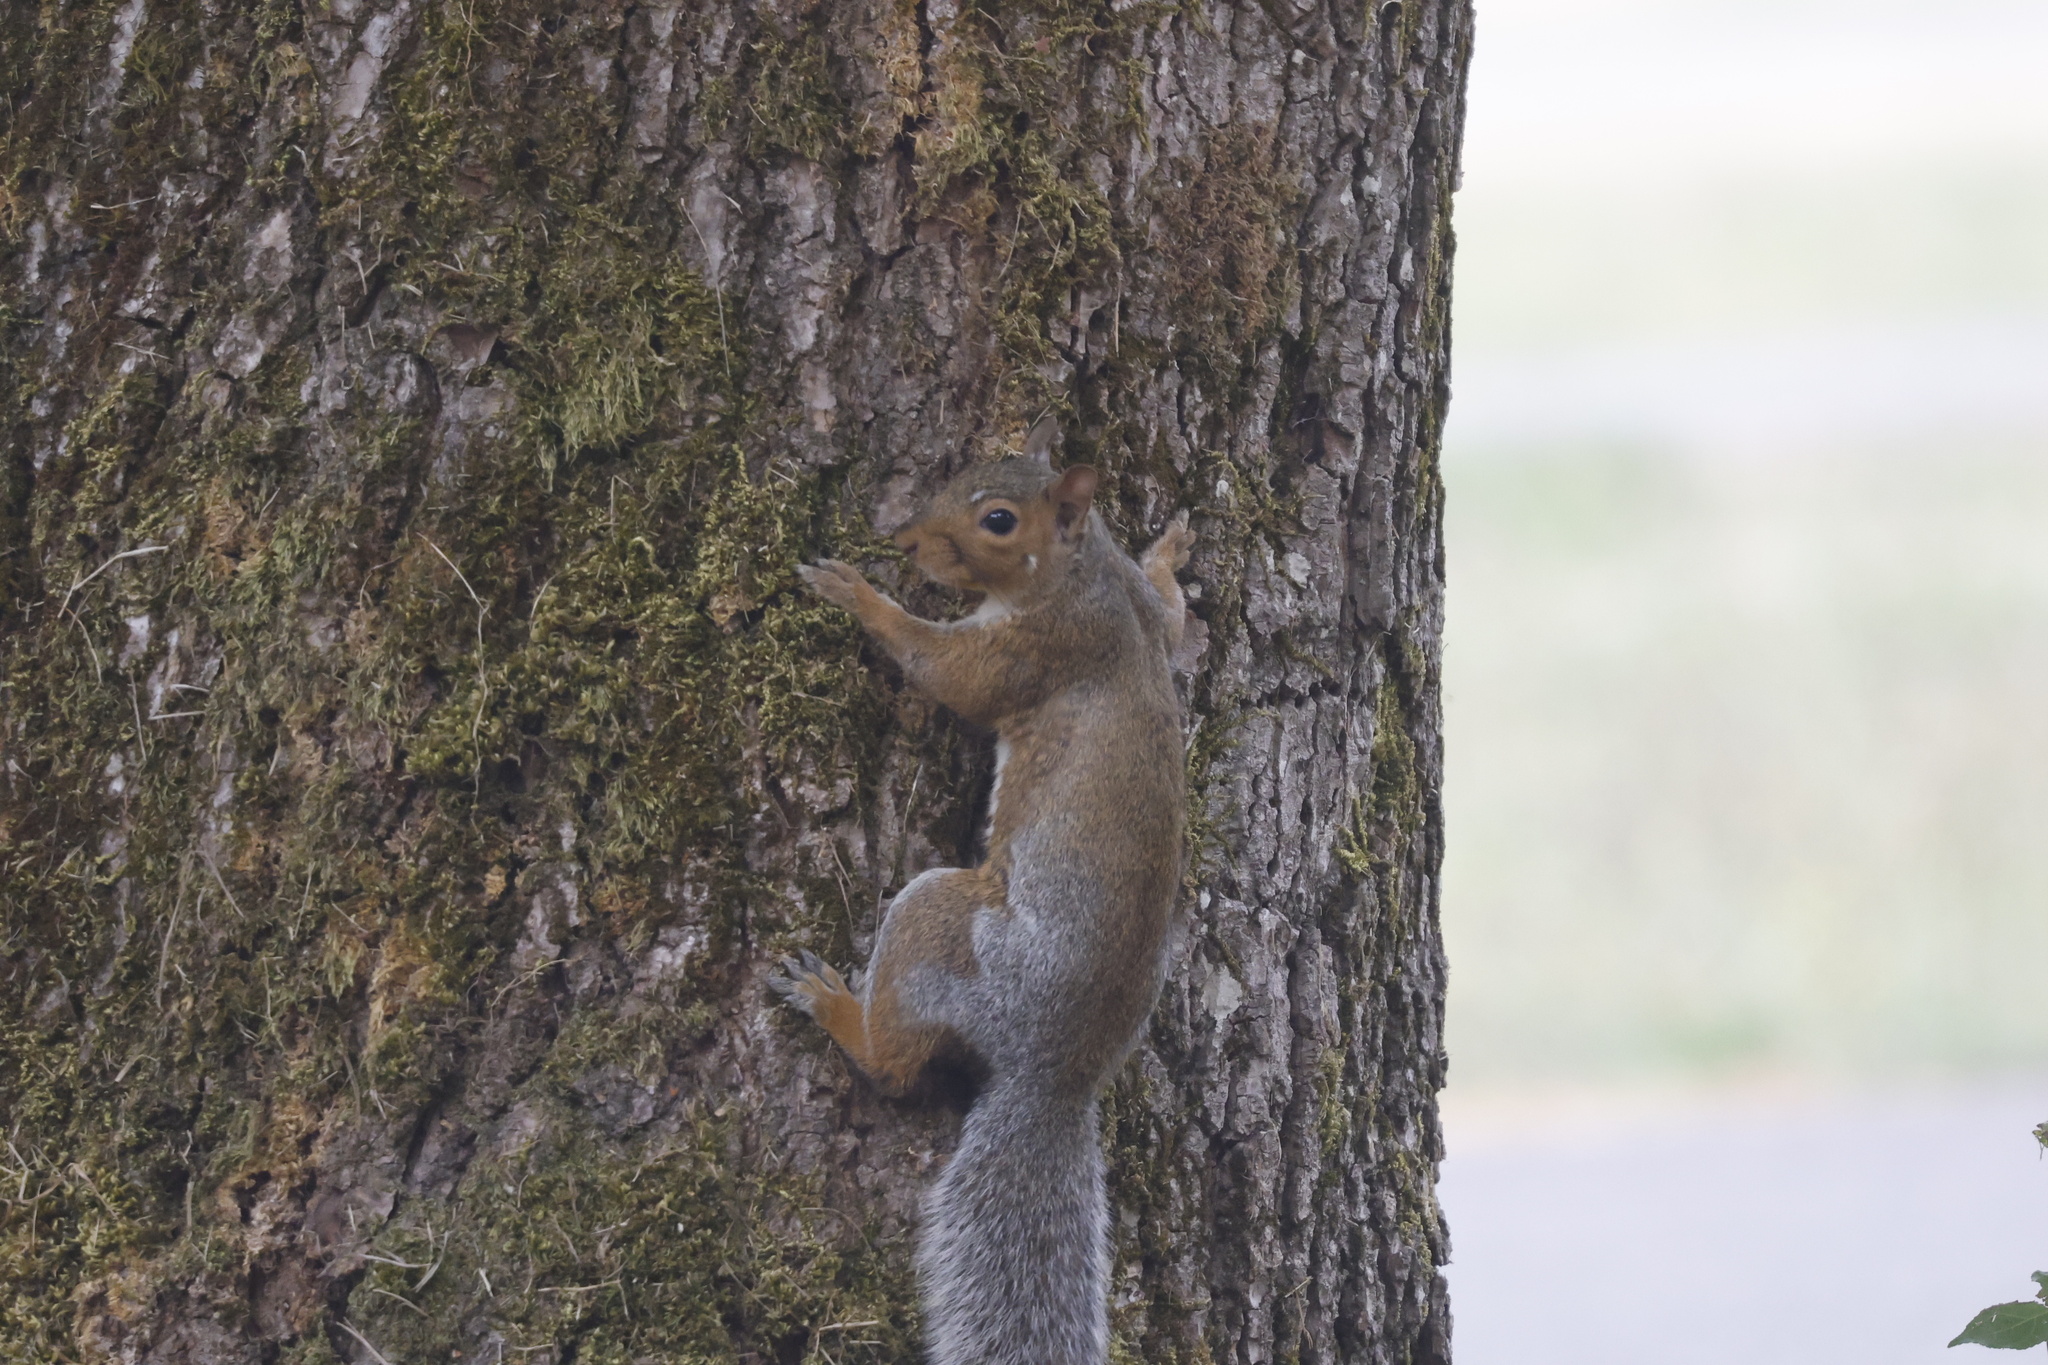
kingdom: Animalia
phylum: Chordata
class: Mammalia
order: Rodentia
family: Sciuridae
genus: Sciurus
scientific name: Sciurus carolinensis
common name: Eastern gray squirrel
